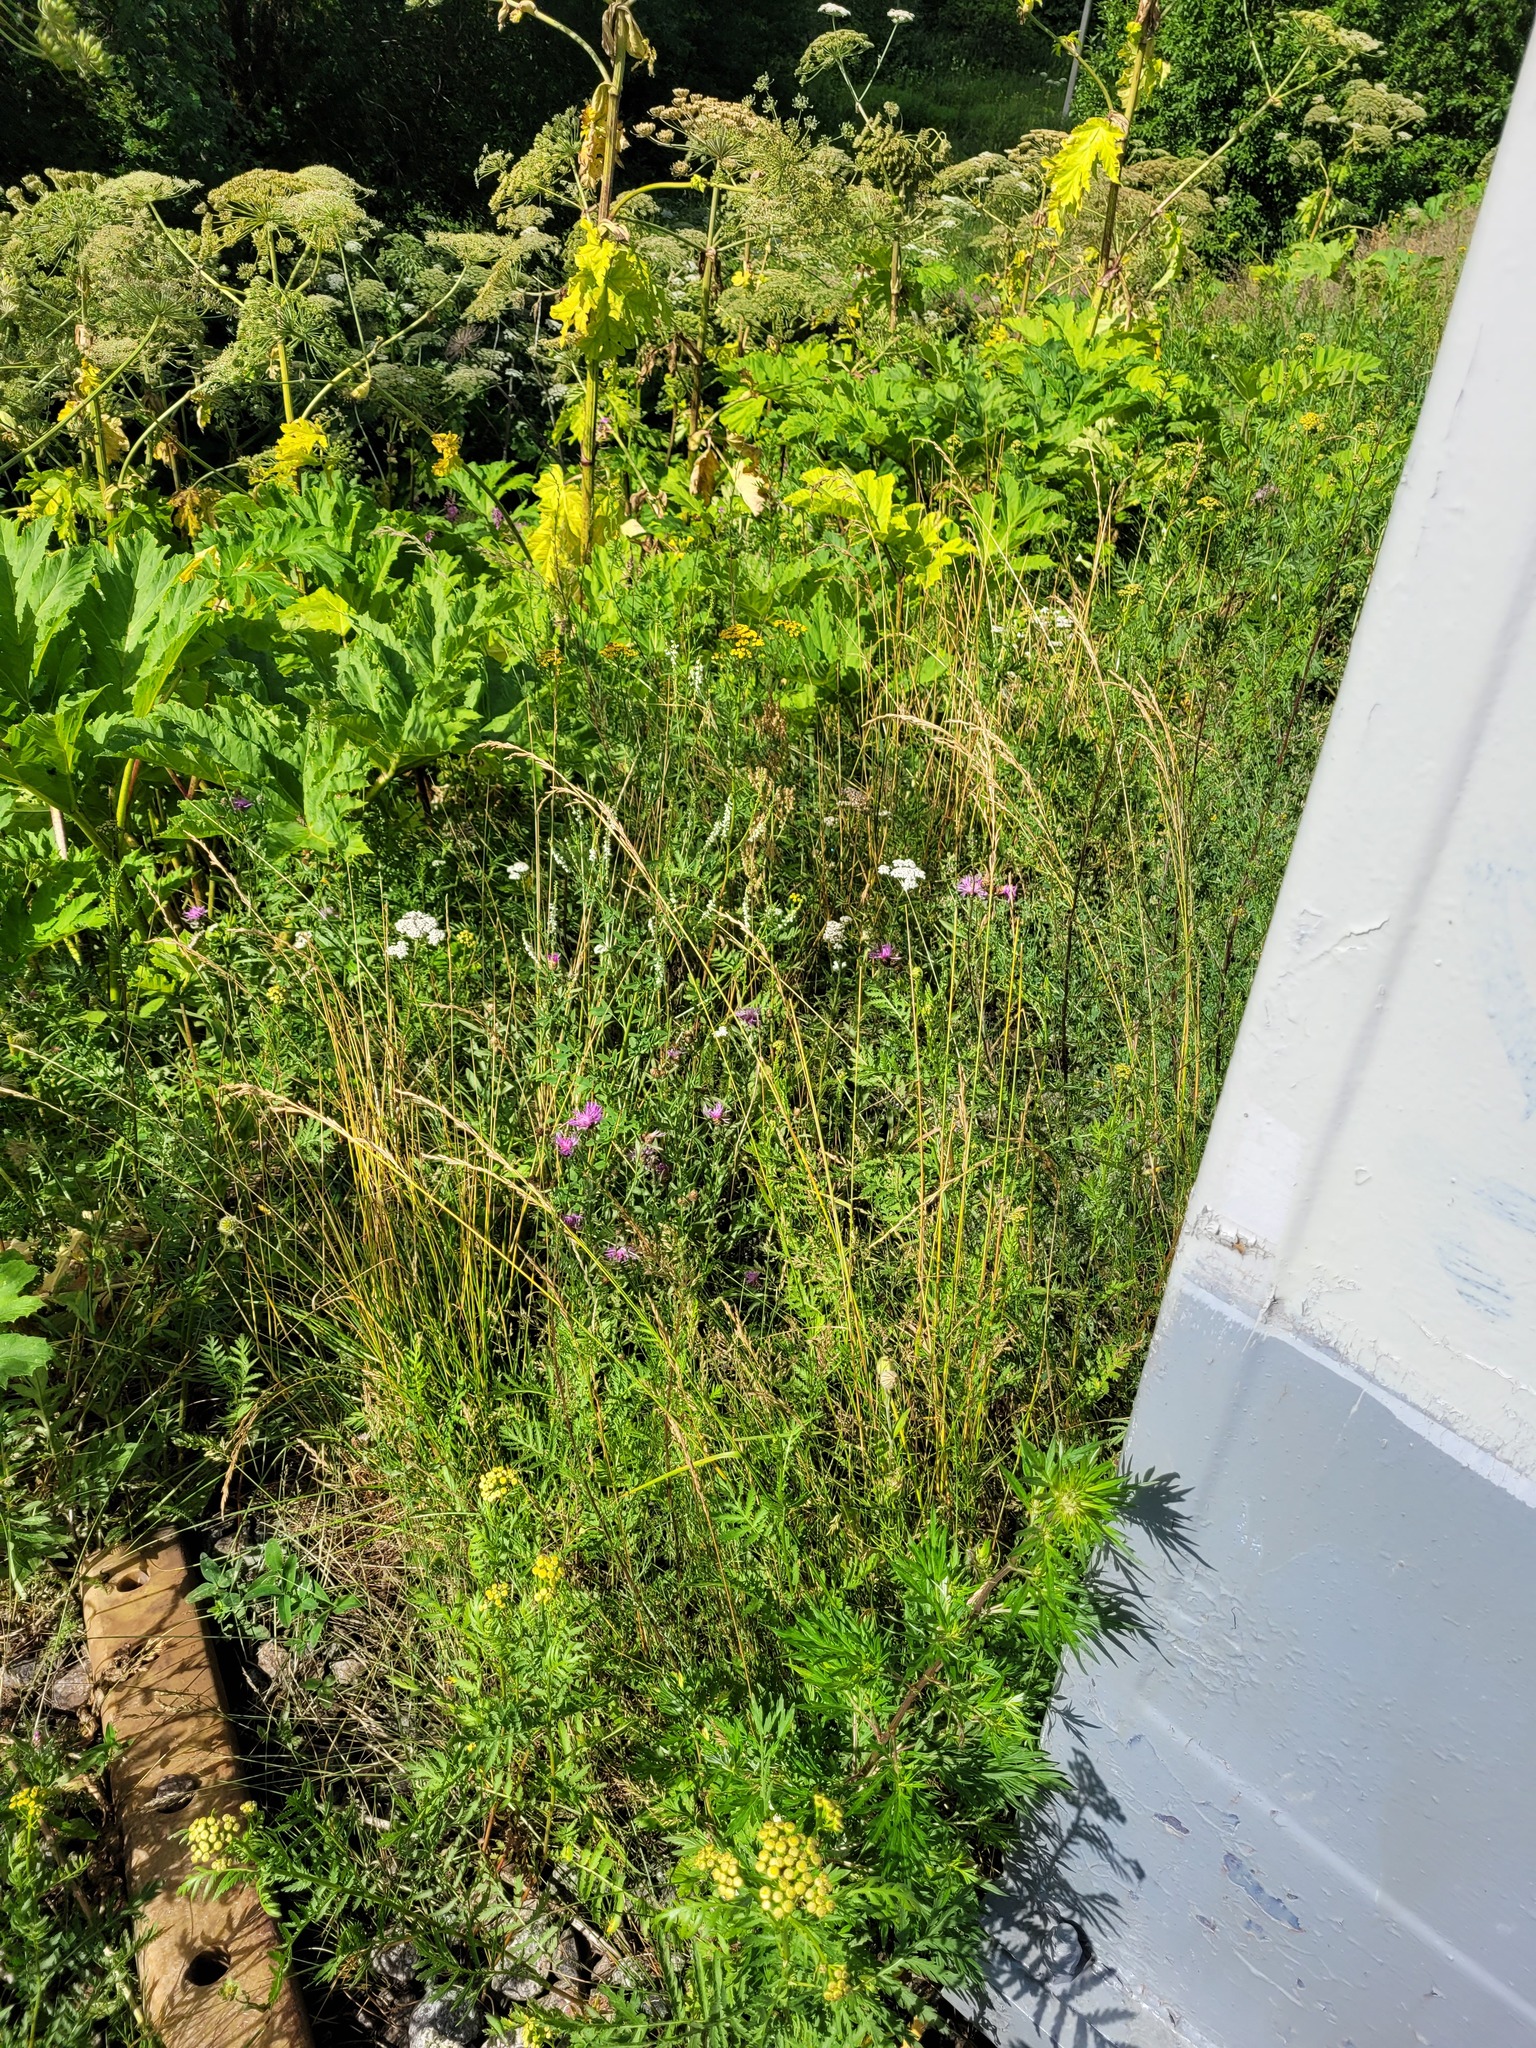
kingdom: Plantae
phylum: Tracheophyta
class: Liliopsida
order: Poales
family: Poaceae
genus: Lolium
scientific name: Lolium arundinaceum
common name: Reed fescue
